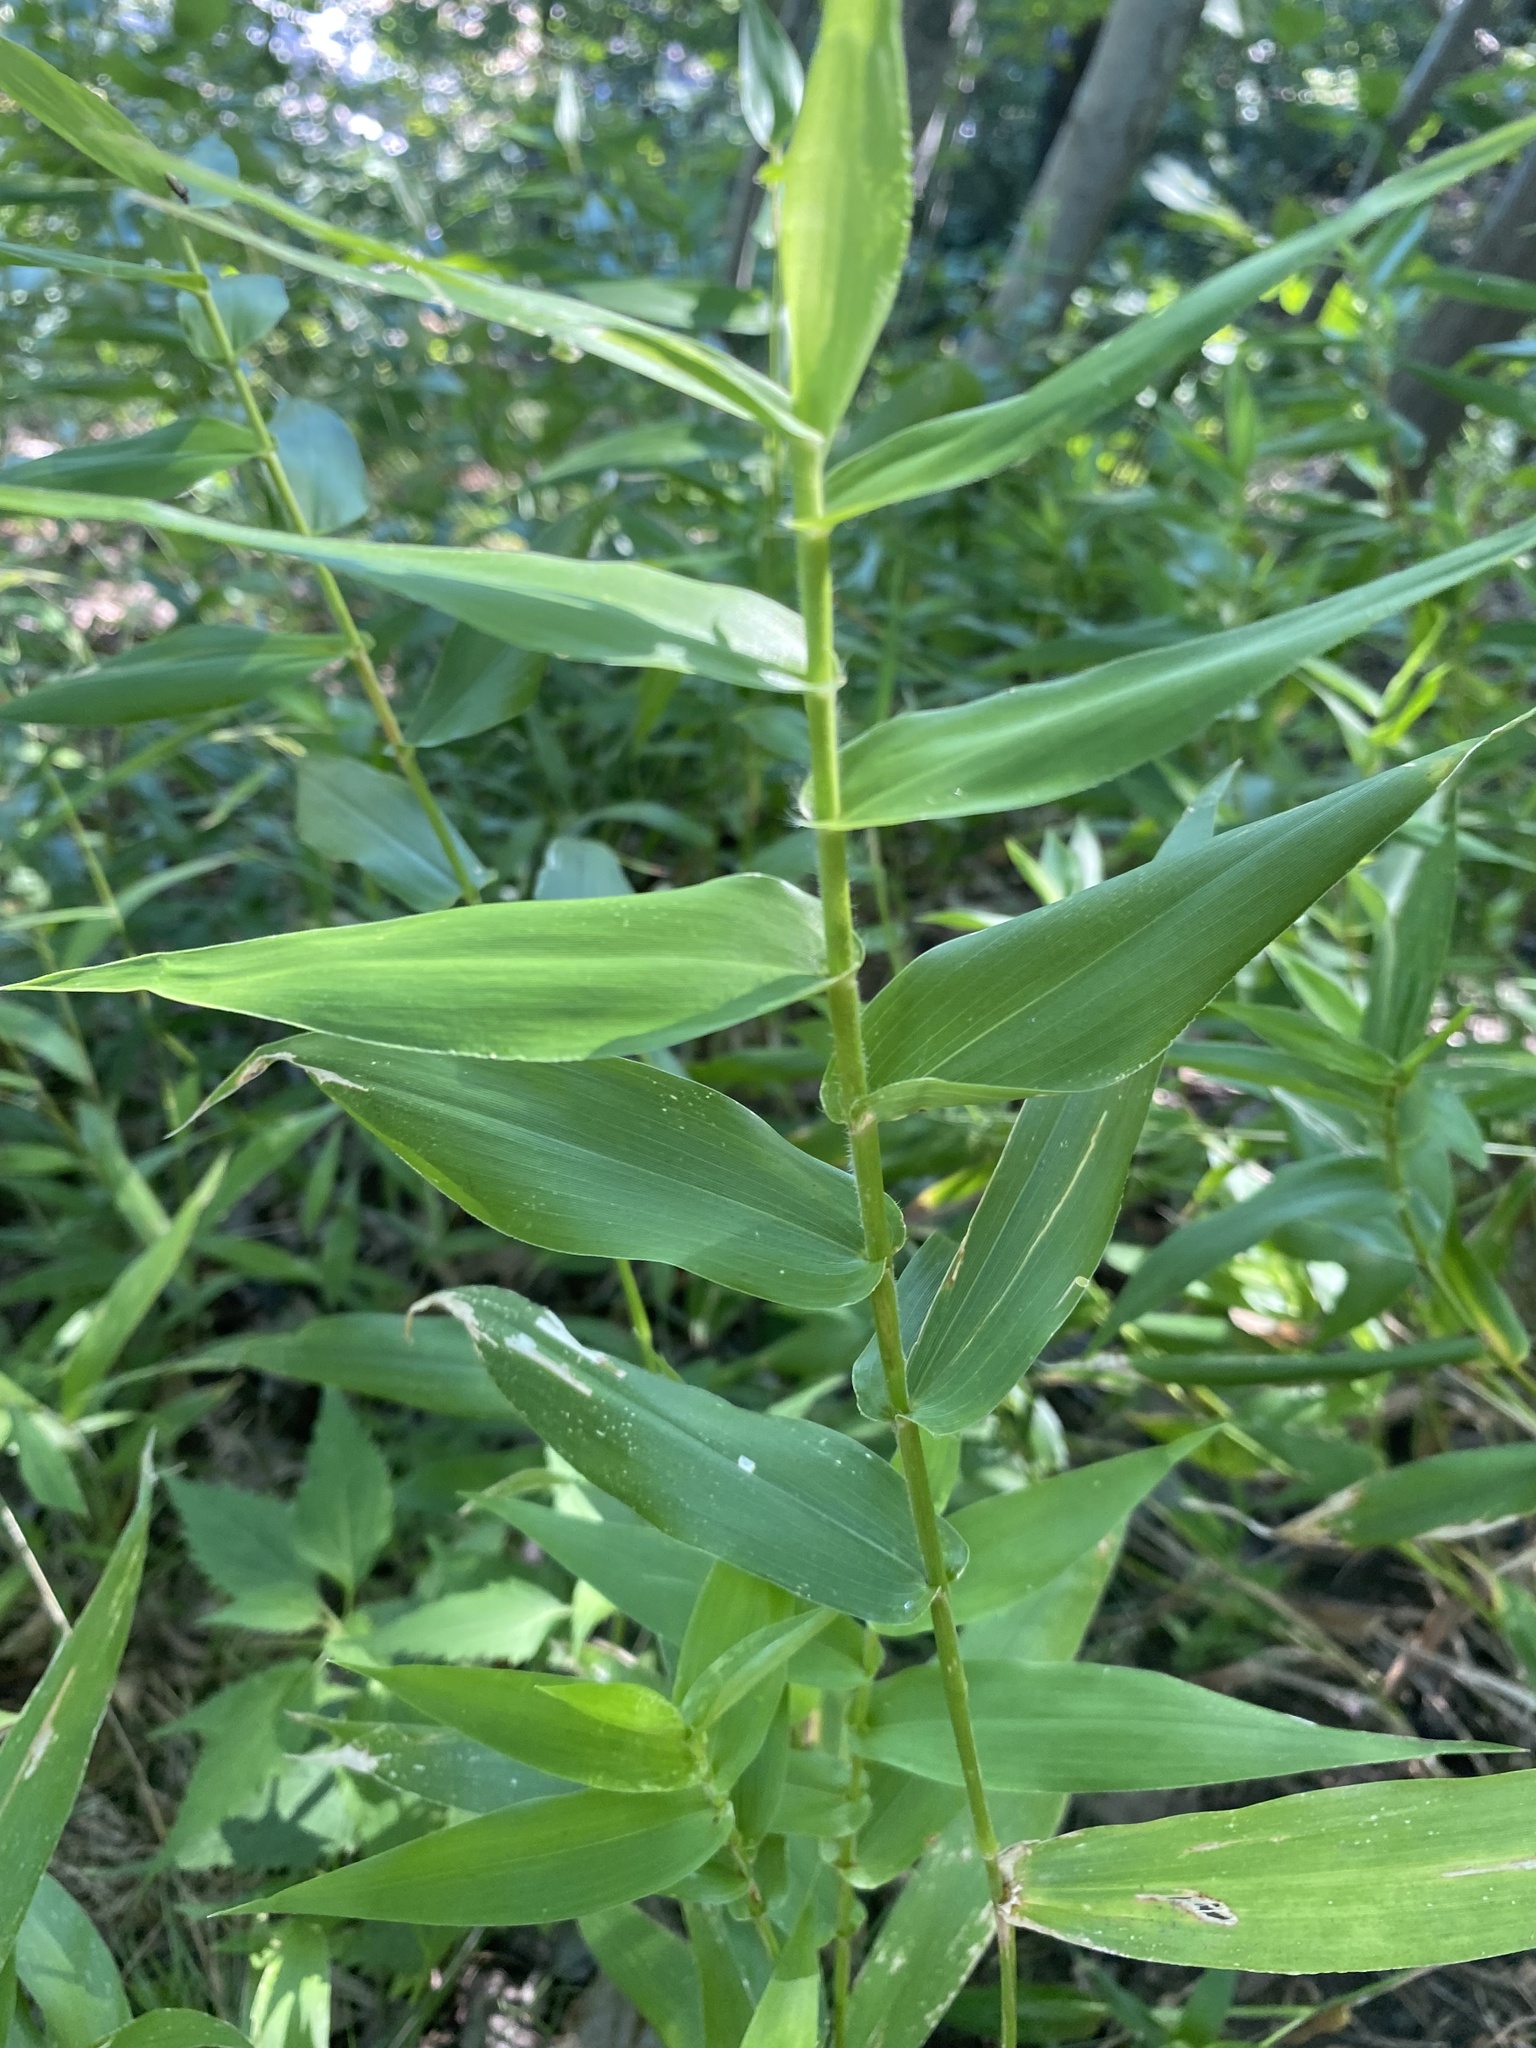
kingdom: Plantae
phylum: Tracheophyta
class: Liliopsida
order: Poales
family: Poaceae
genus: Dichanthelium
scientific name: Dichanthelium clandestinum
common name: Deer-tongue grass
